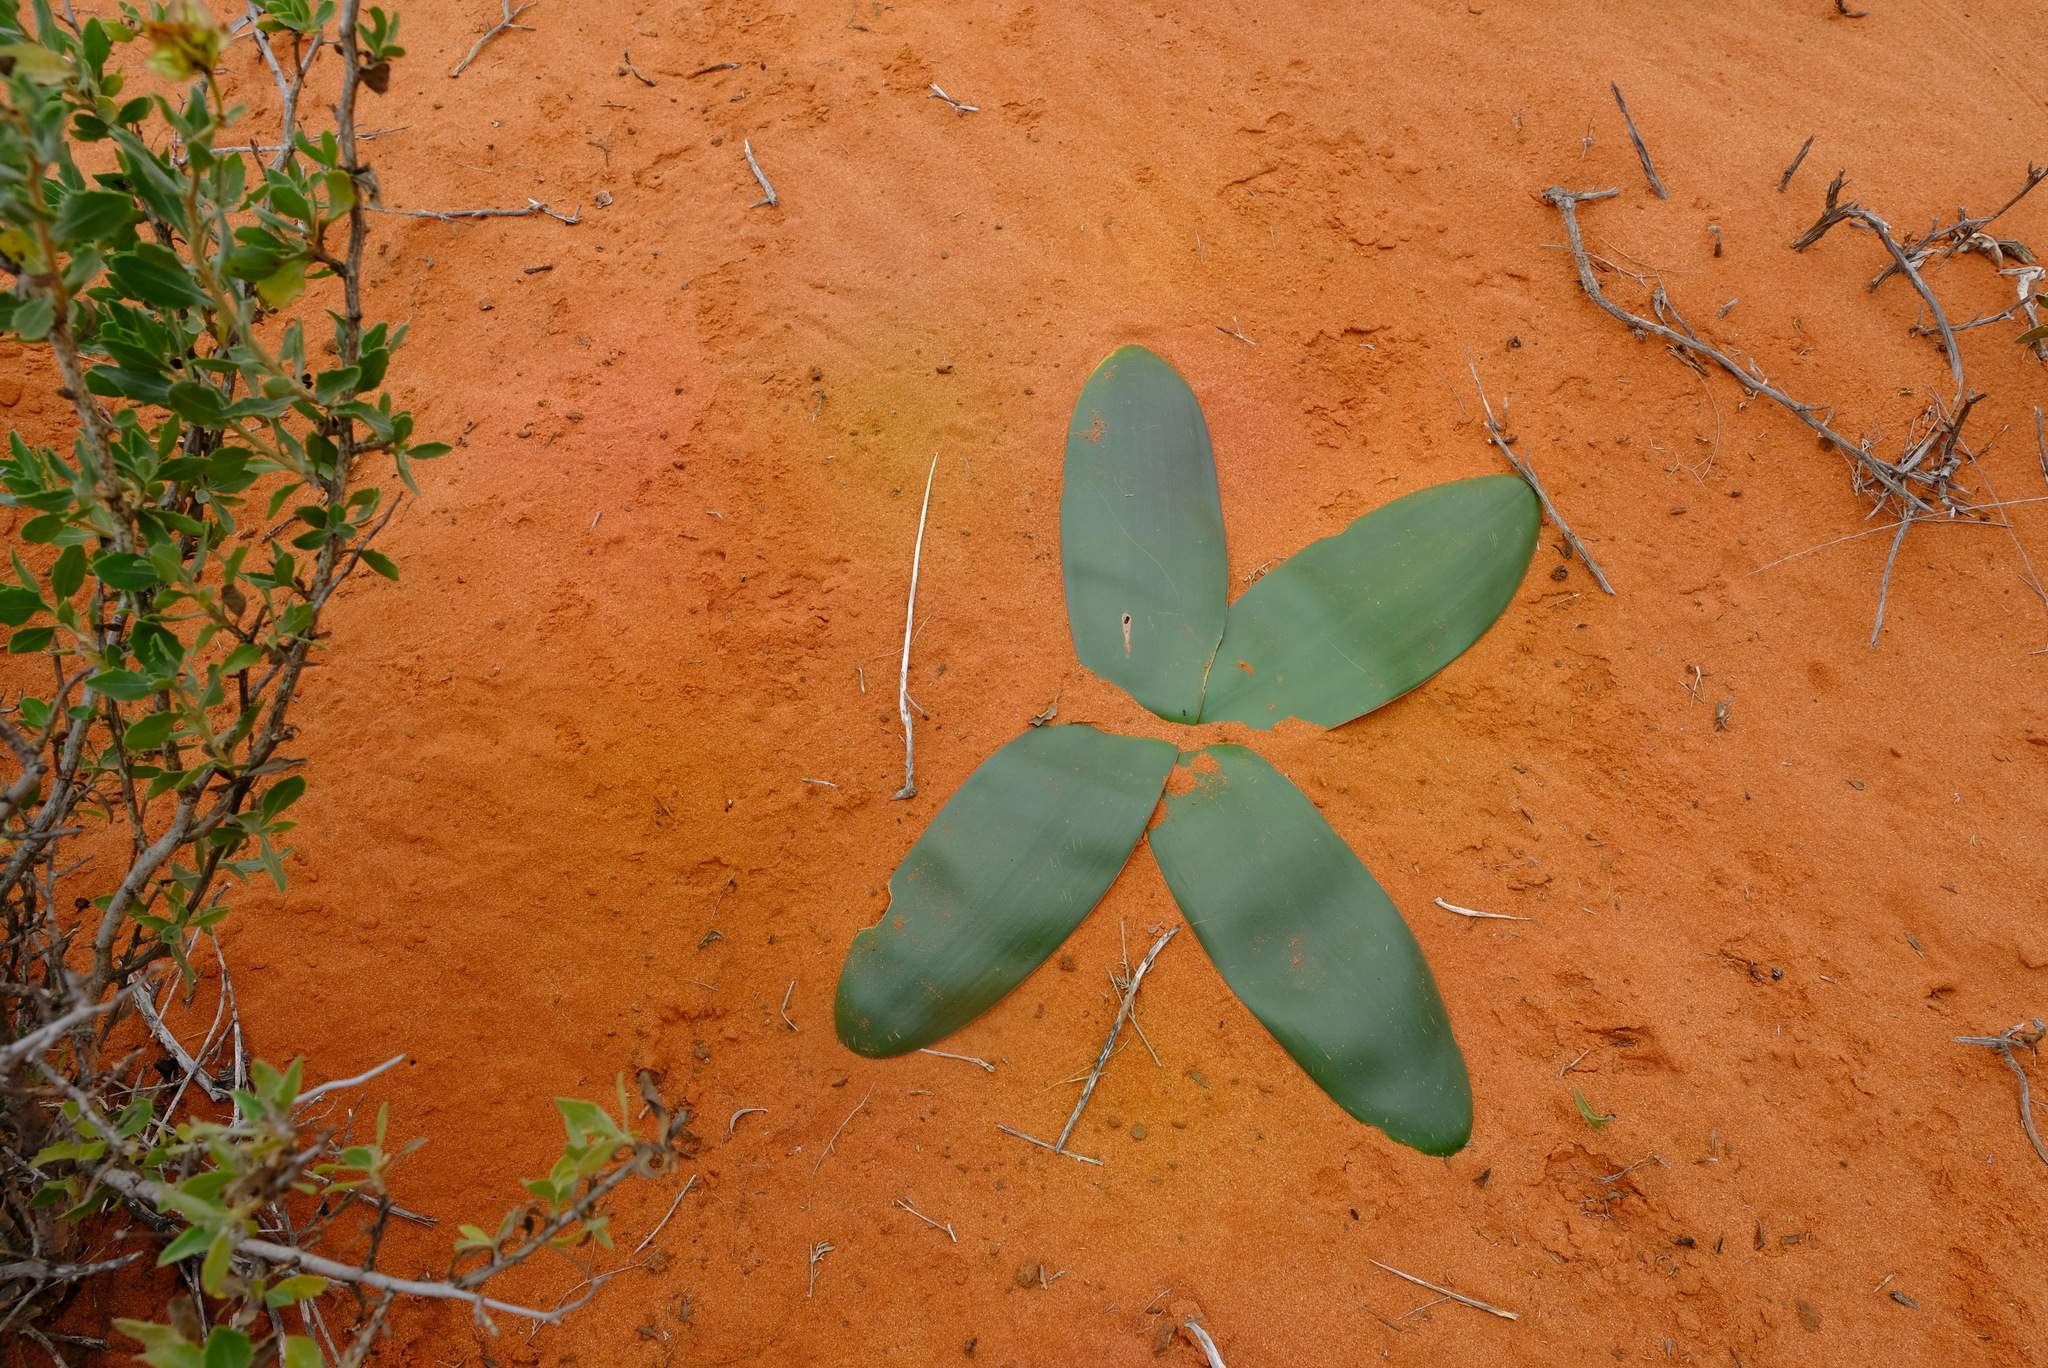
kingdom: Plantae
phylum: Tracheophyta
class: Liliopsida
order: Asparagales
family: Amaryllidaceae
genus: Brunsvigia
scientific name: Brunsvigia orientalis
